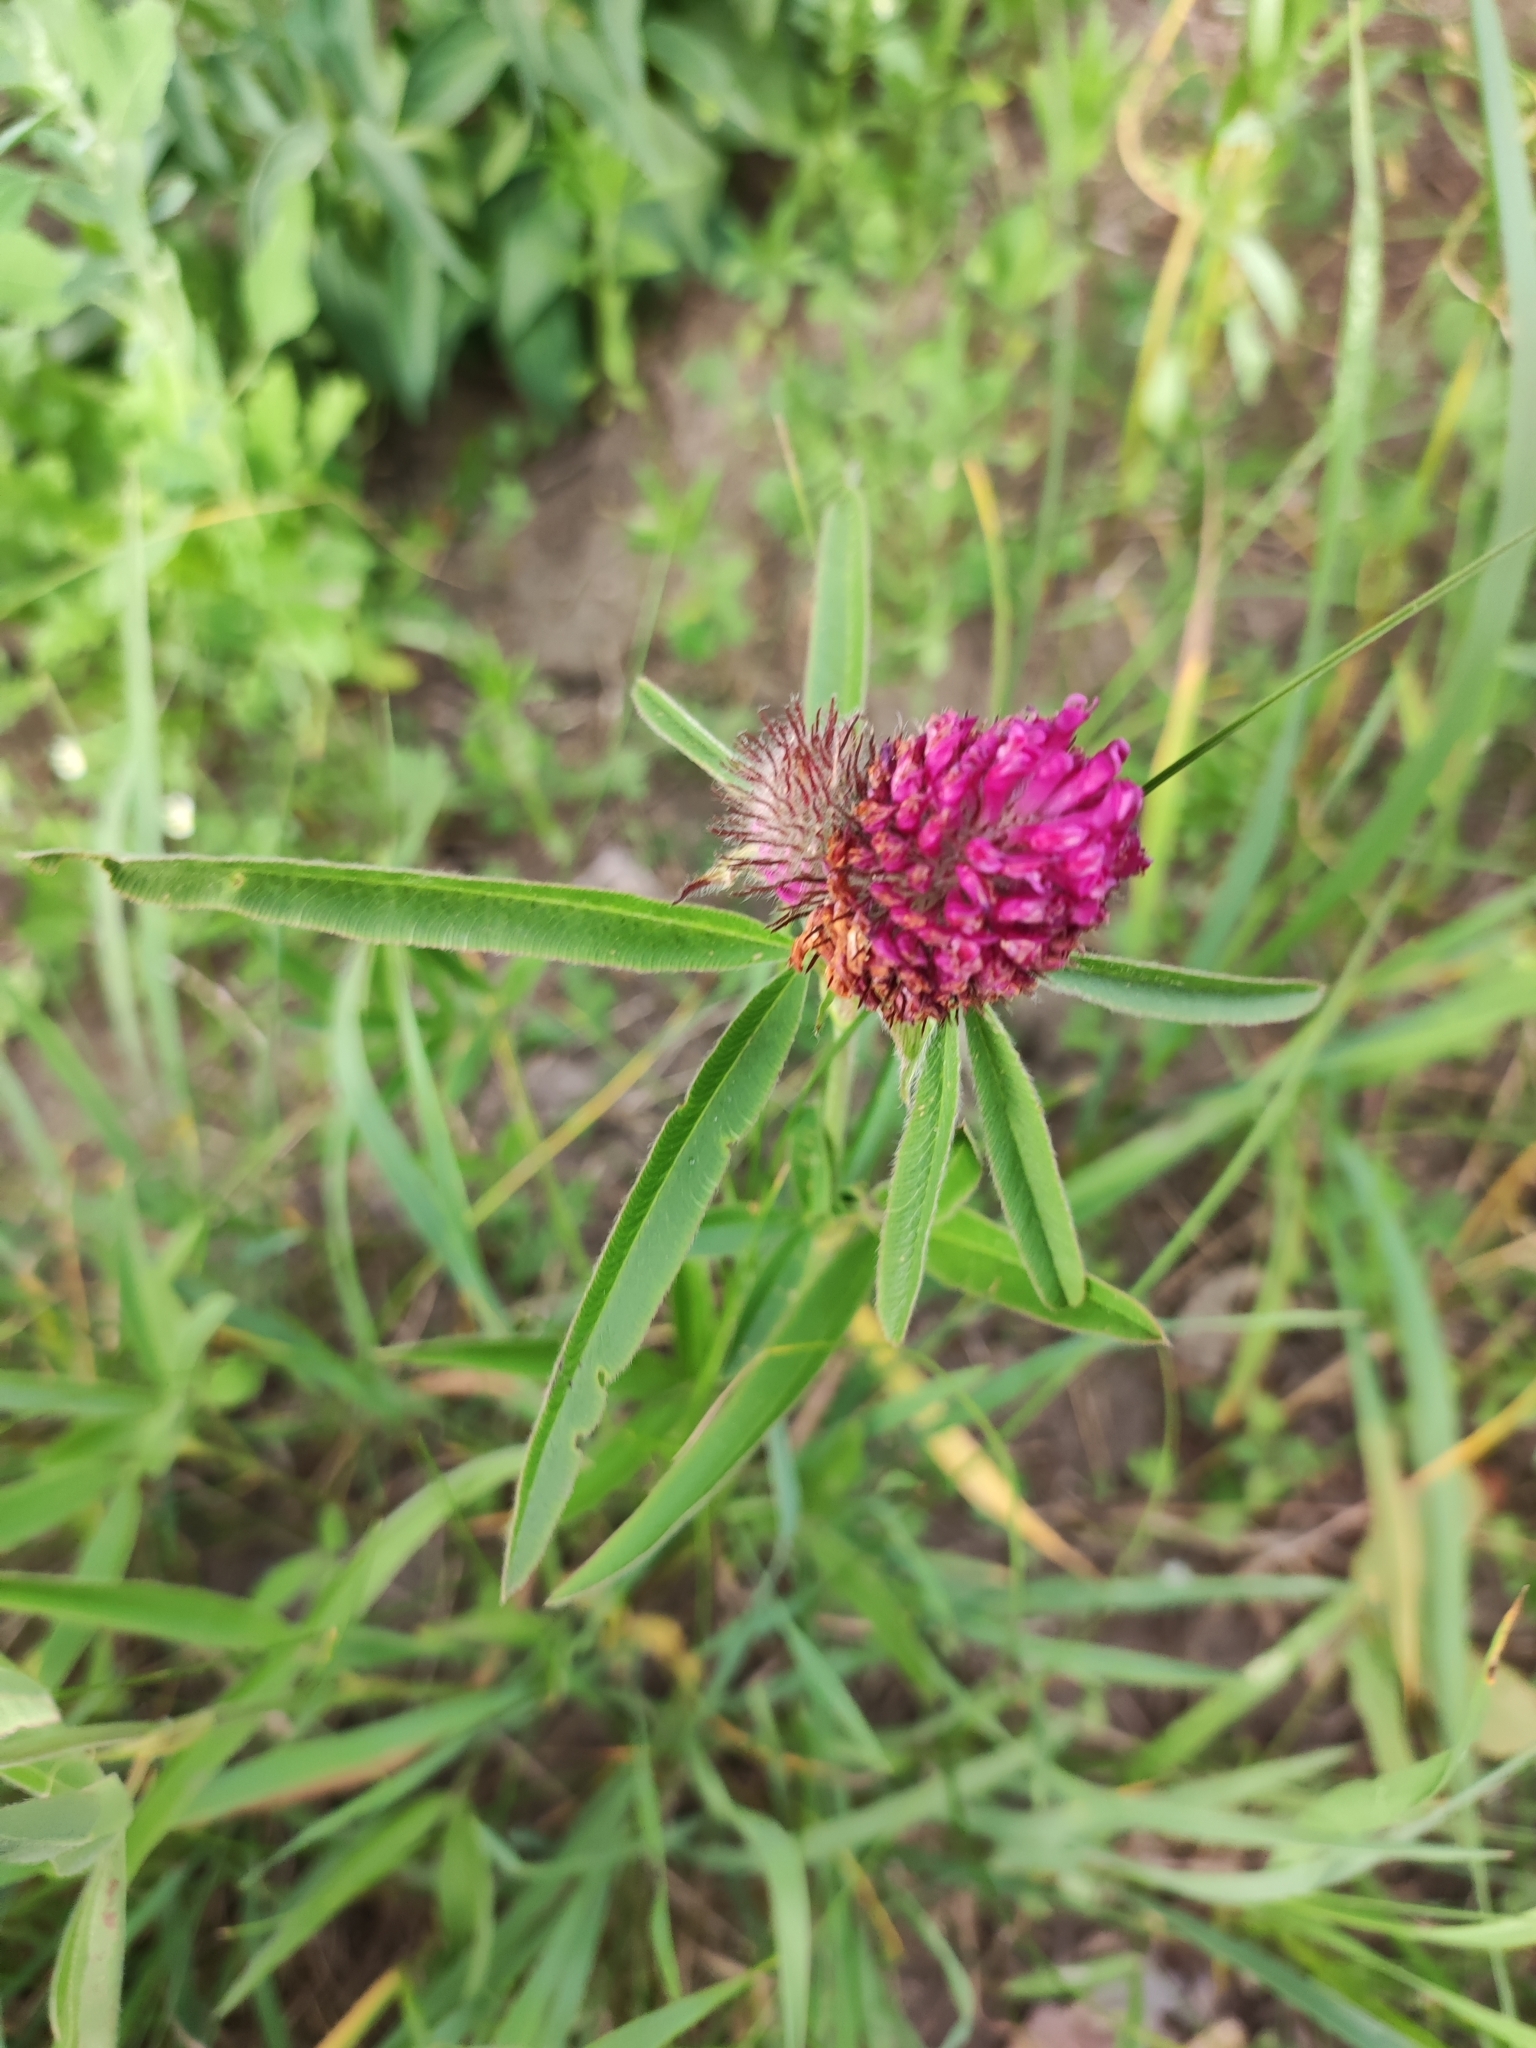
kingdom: Plantae
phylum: Tracheophyta
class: Magnoliopsida
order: Fabales
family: Fabaceae
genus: Trifolium
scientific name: Trifolium alpestre
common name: Owl-head clover
